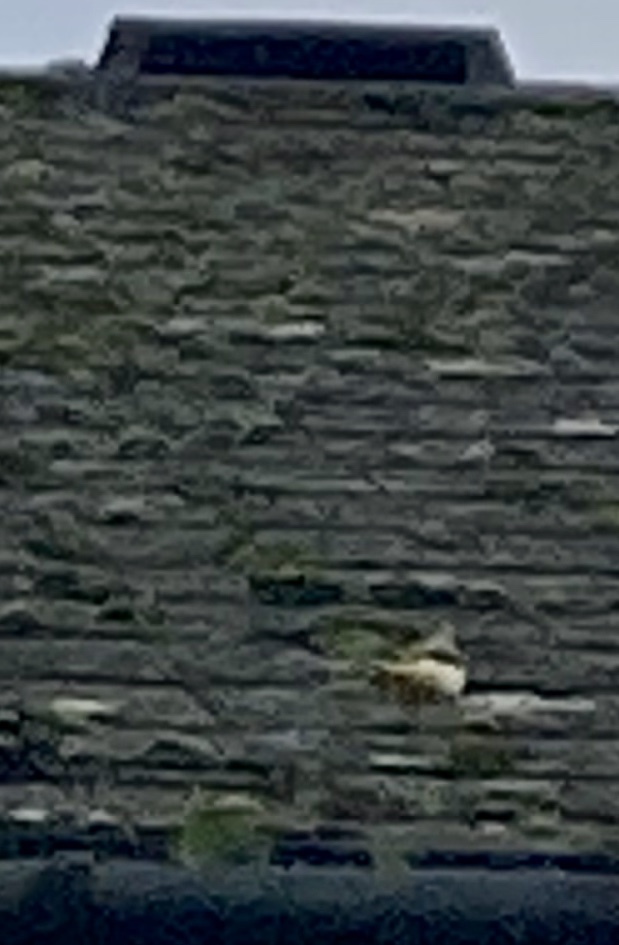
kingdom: Animalia
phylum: Chordata
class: Aves
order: Passeriformes
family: Motacillidae
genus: Motacilla
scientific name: Motacilla cinerea
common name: Grey wagtail
